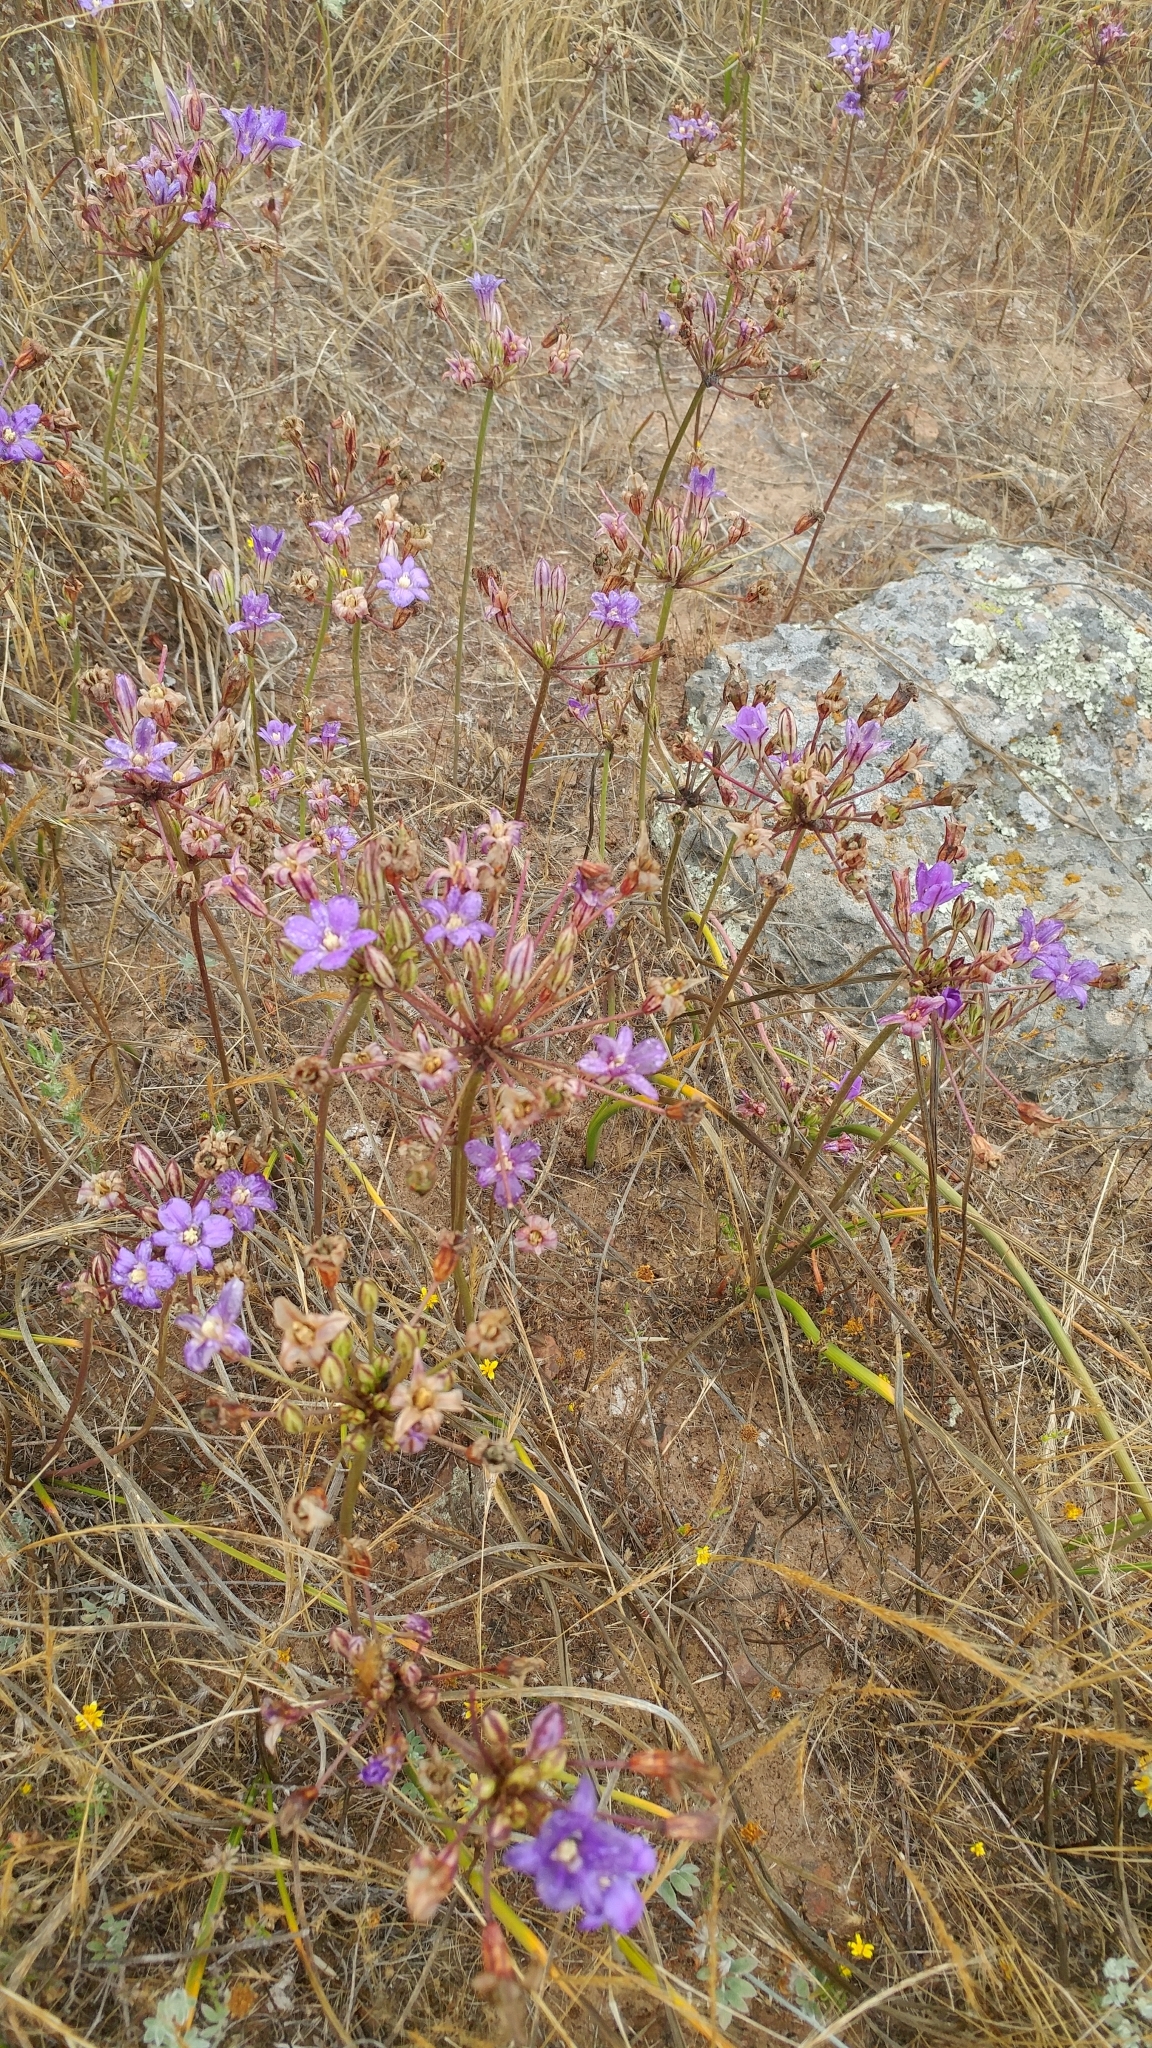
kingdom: Plantae
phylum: Tracheophyta
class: Liliopsida
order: Asparagales
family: Asparagaceae
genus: Brodiaea
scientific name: Brodiaea kinkiensis
